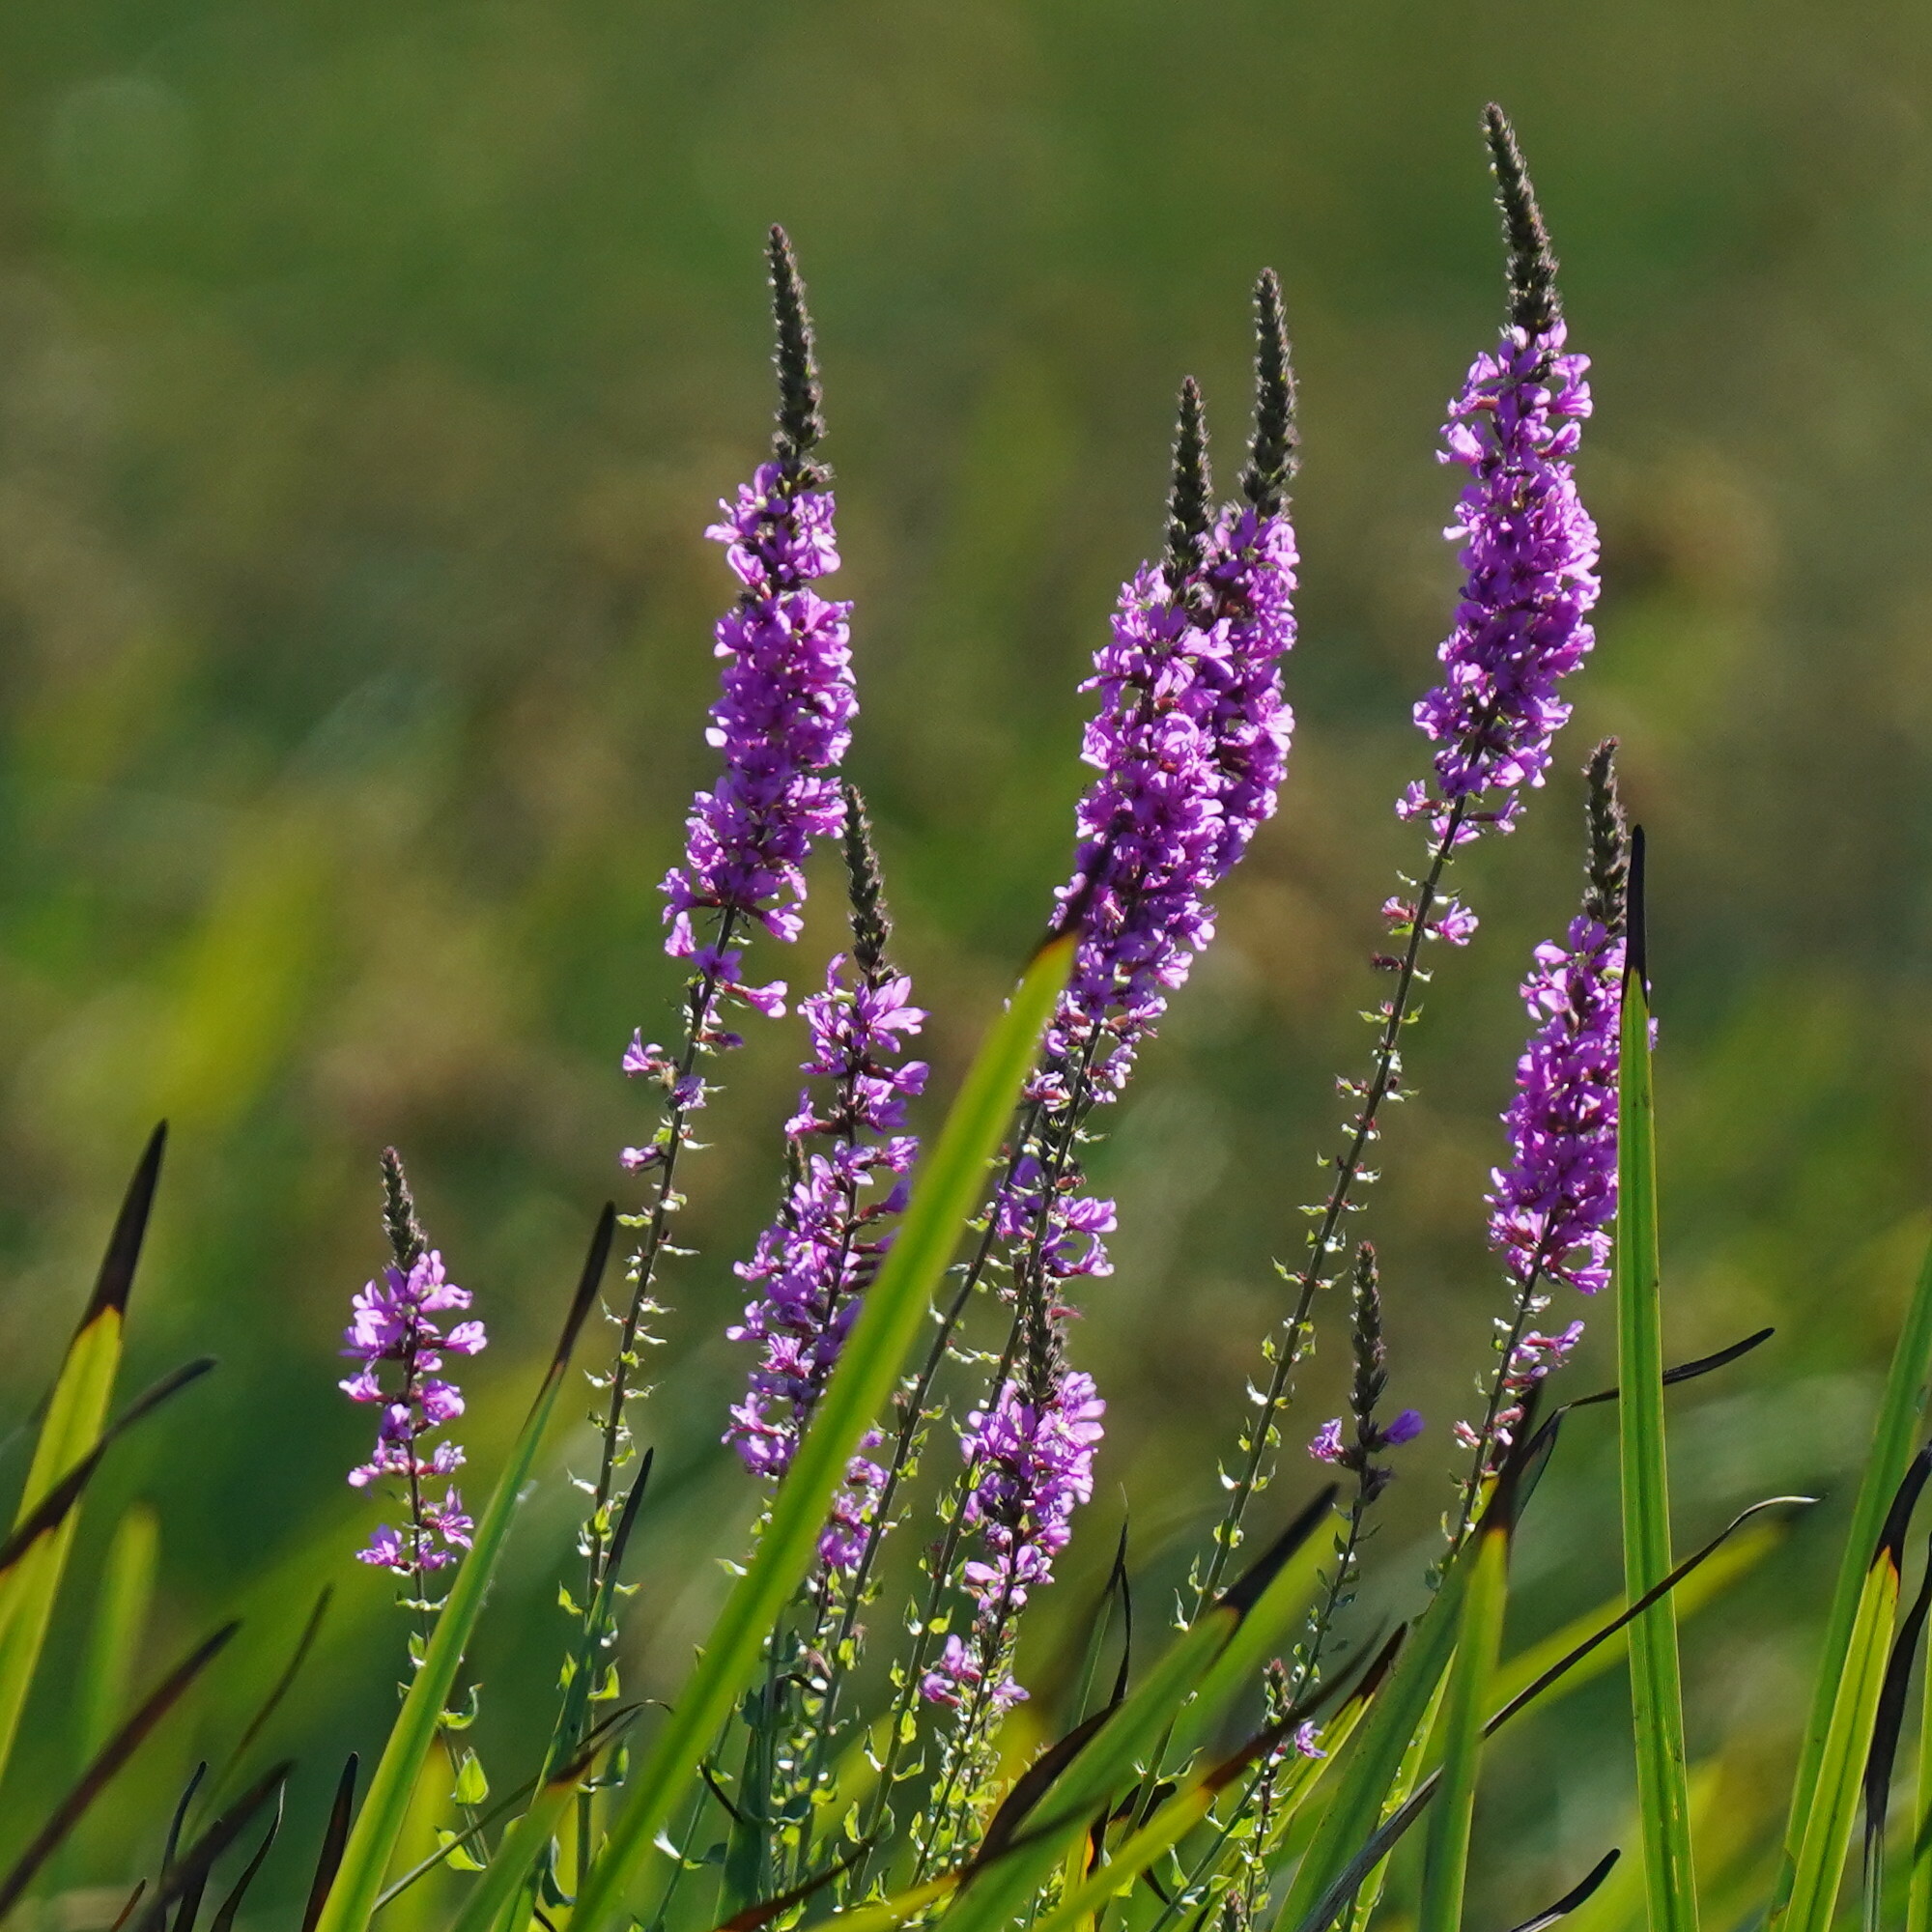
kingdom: Plantae
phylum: Tracheophyta
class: Magnoliopsida
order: Myrtales
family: Lythraceae
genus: Lythrum
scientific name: Lythrum salicaria
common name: Purple loosestrife
